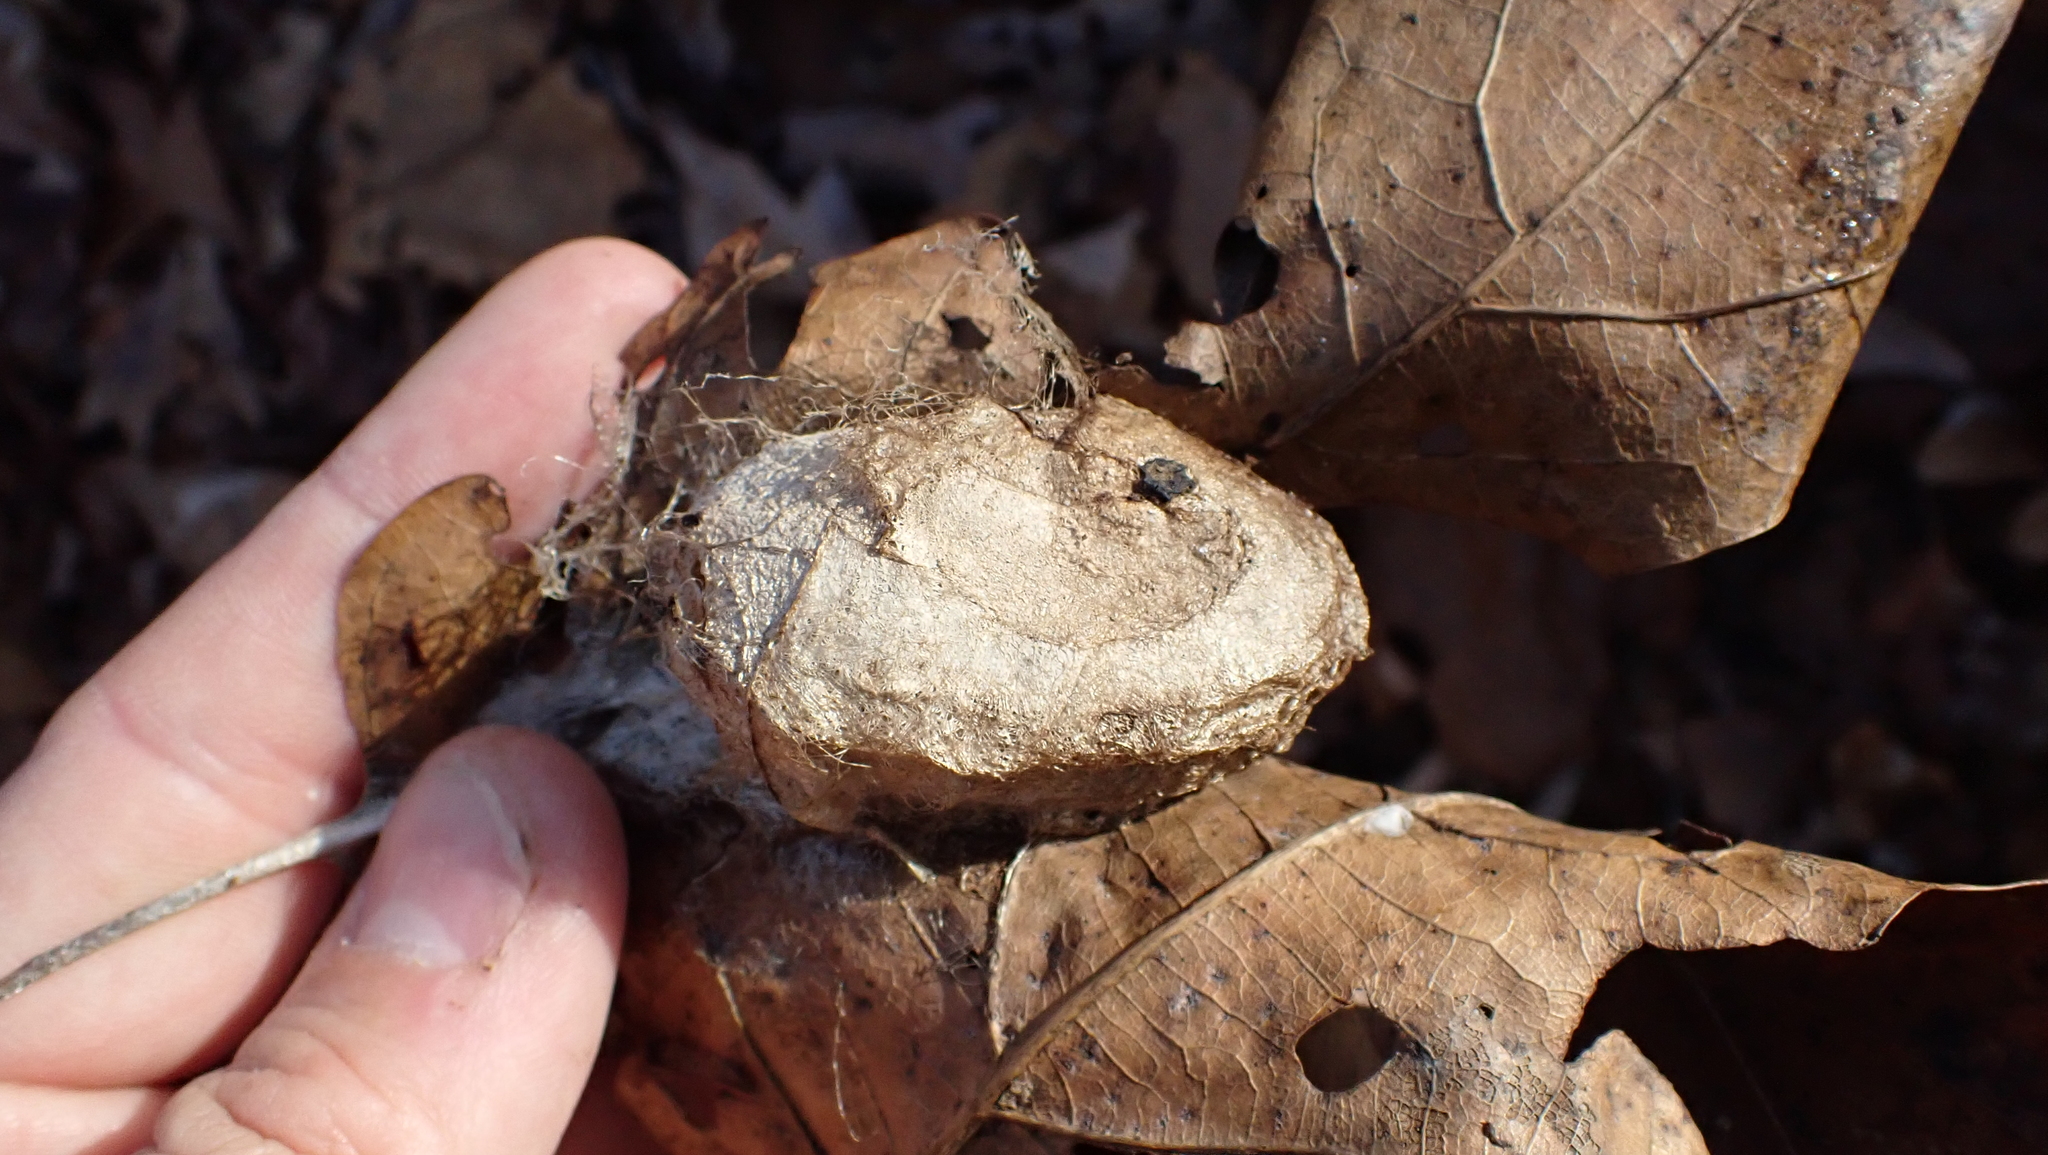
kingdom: Animalia
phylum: Arthropoda
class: Insecta
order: Lepidoptera
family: Saturniidae
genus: Antheraea
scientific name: Antheraea polyphemus
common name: Polyphemus moth
